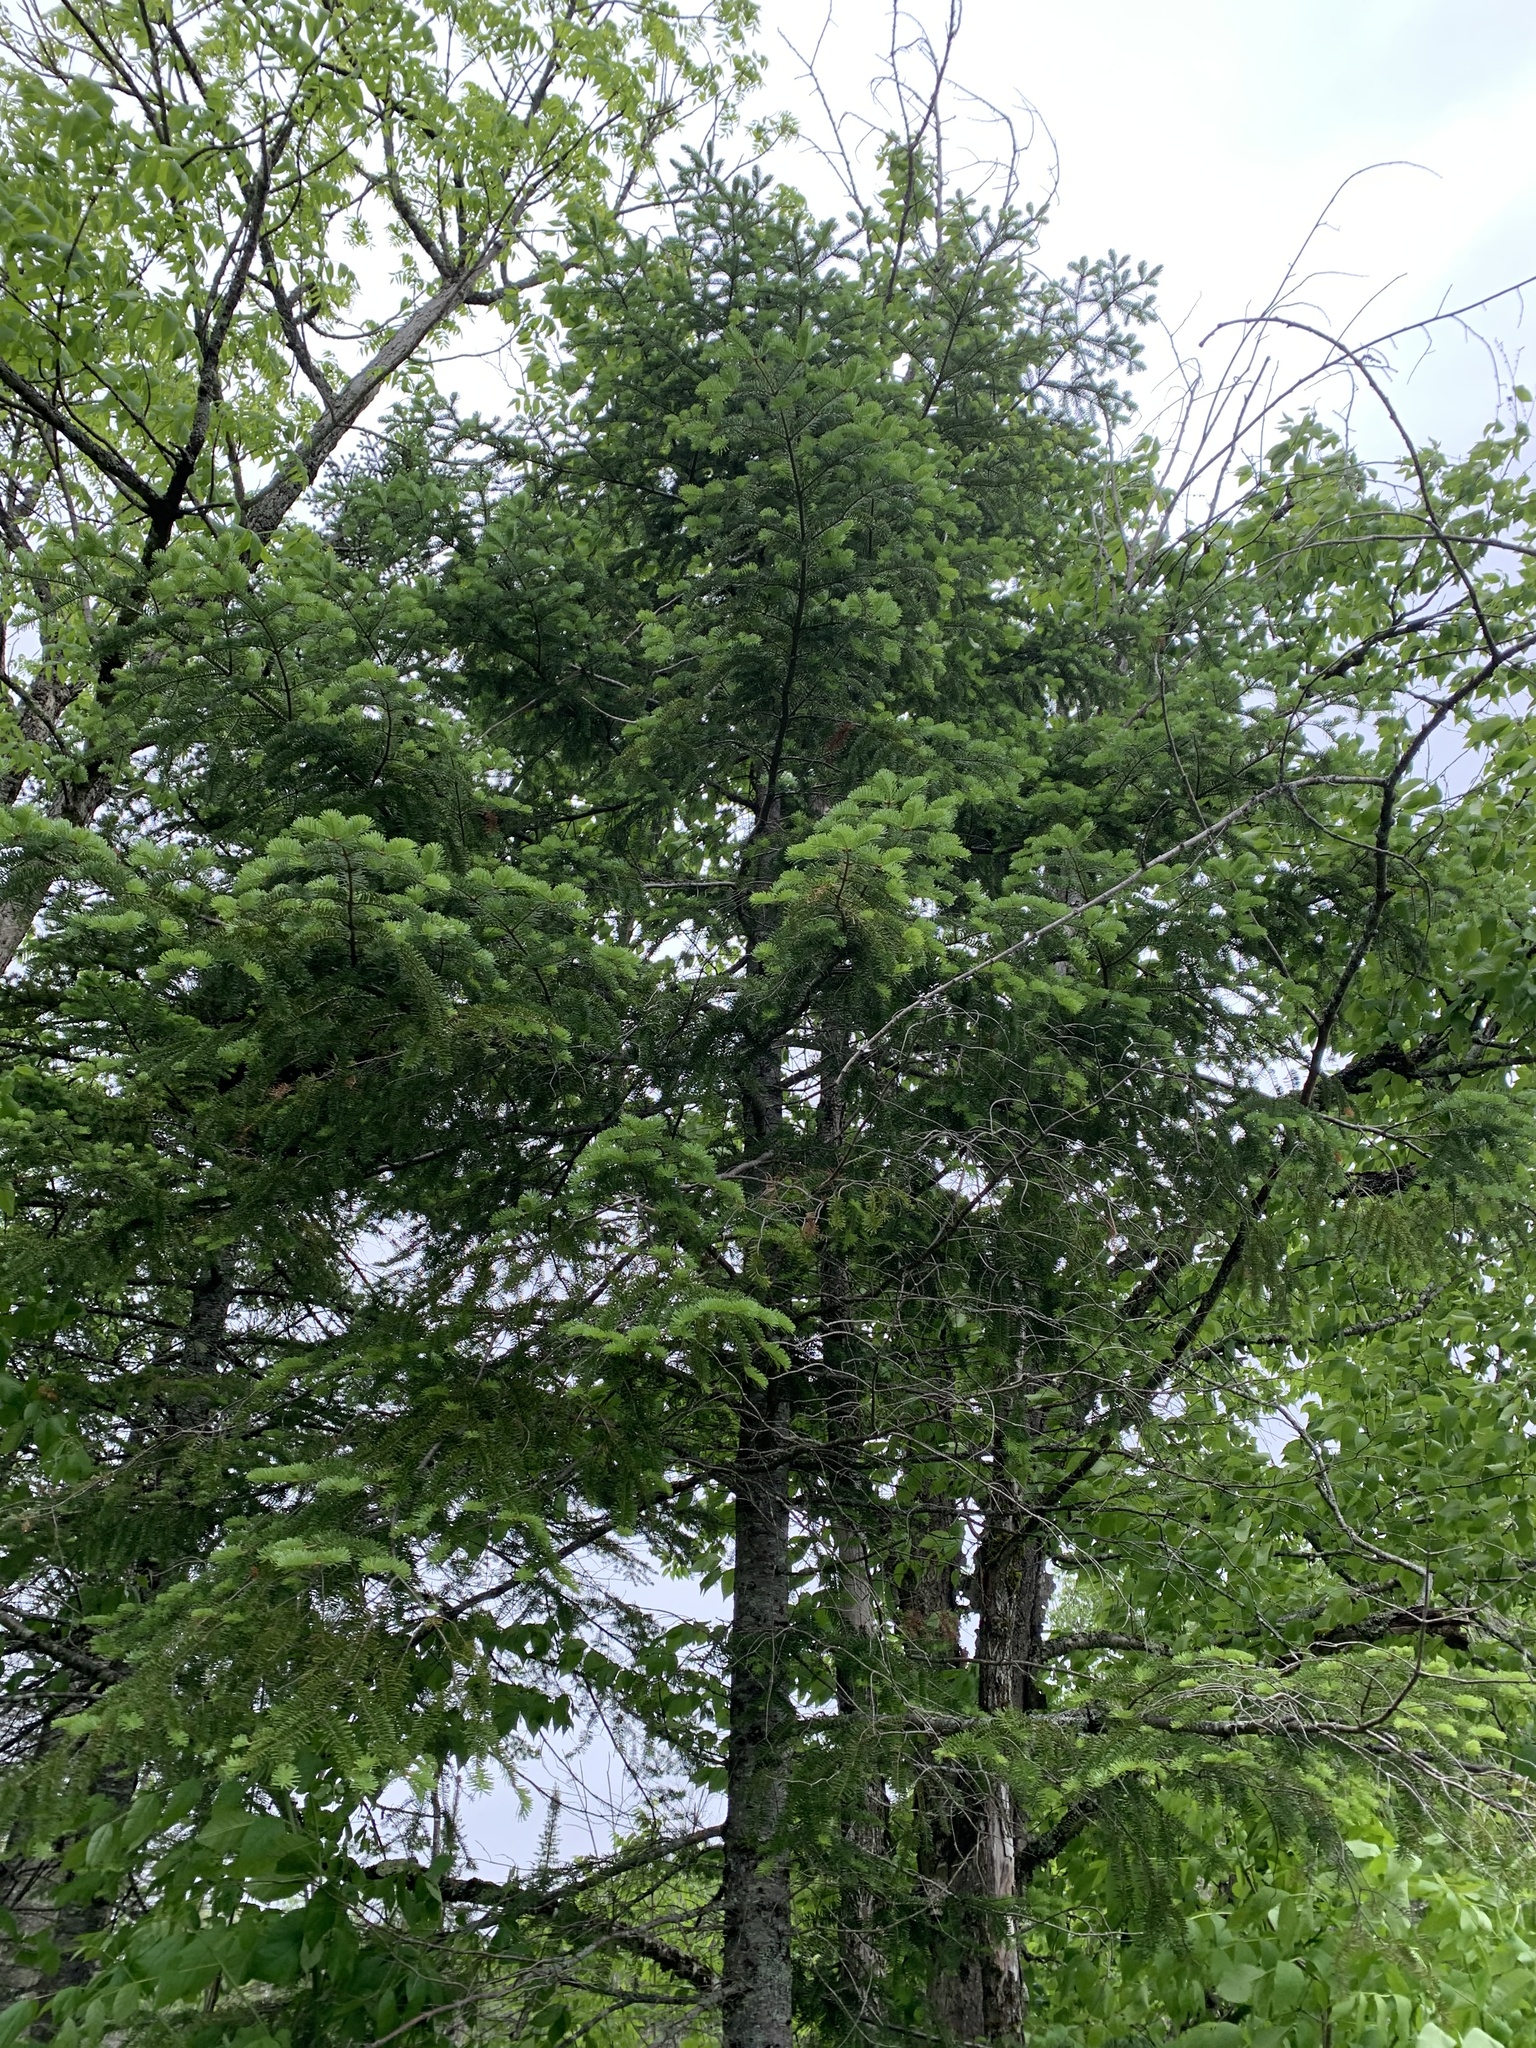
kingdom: Plantae
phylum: Tracheophyta
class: Pinopsida
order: Pinales
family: Pinaceae
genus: Abies
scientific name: Abies balsamea
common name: Balsam fir
